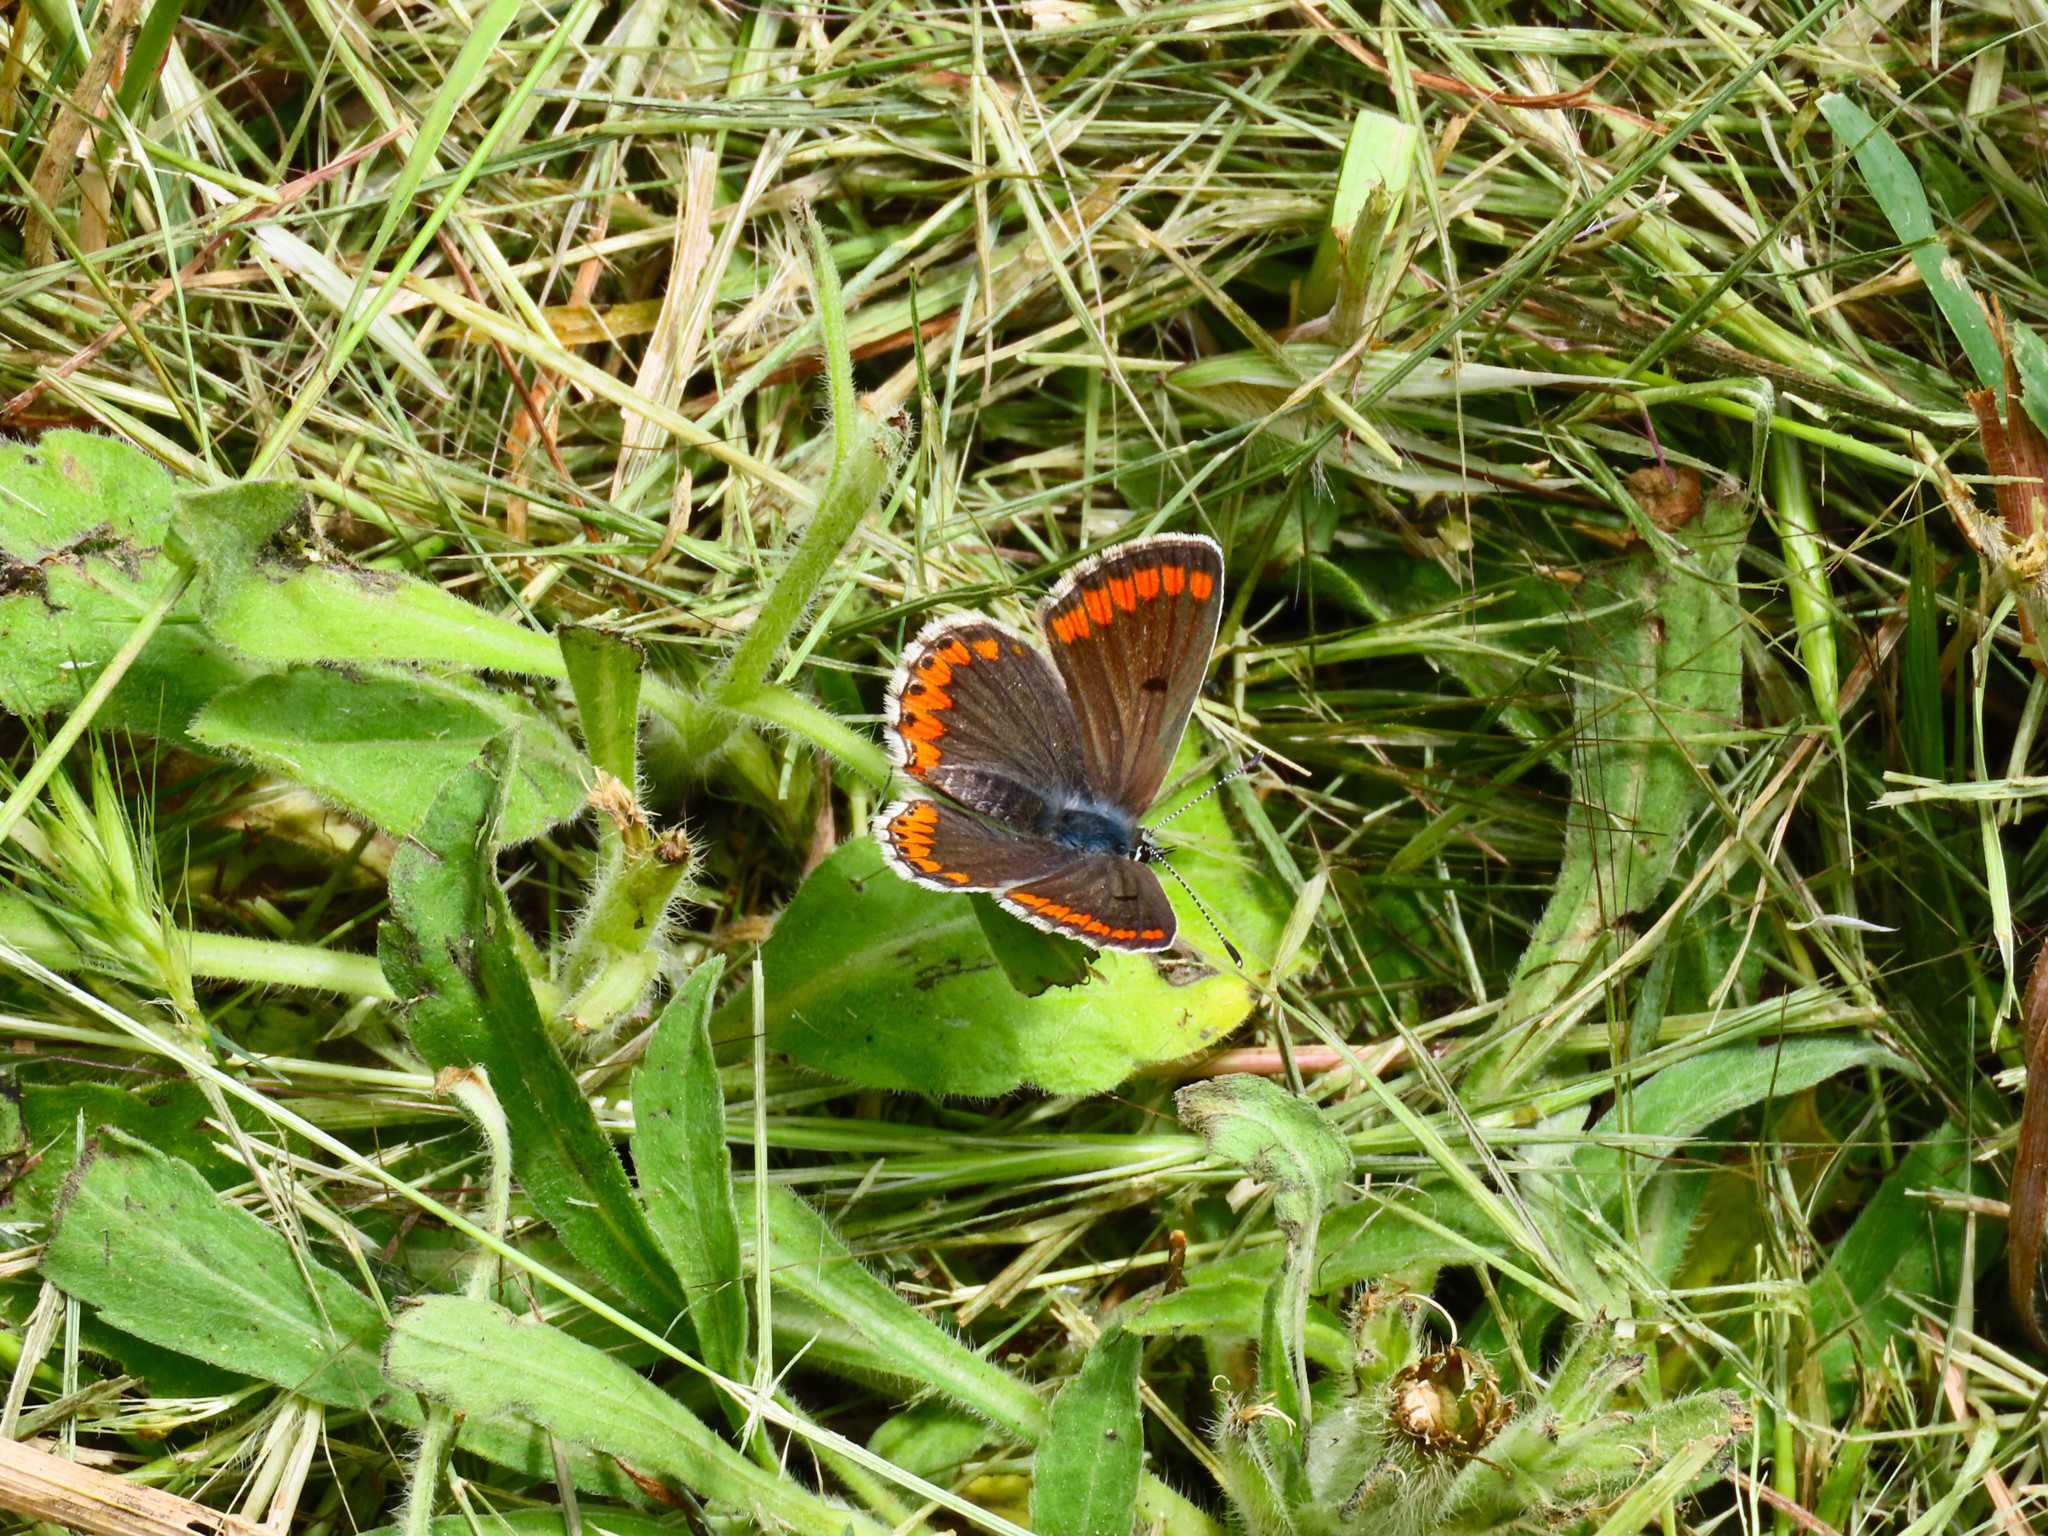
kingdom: Animalia
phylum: Arthropoda
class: Insecta
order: Lepidoptera
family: Lycaenidae
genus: Aricia
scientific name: Aricia agestis
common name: Brown argus
